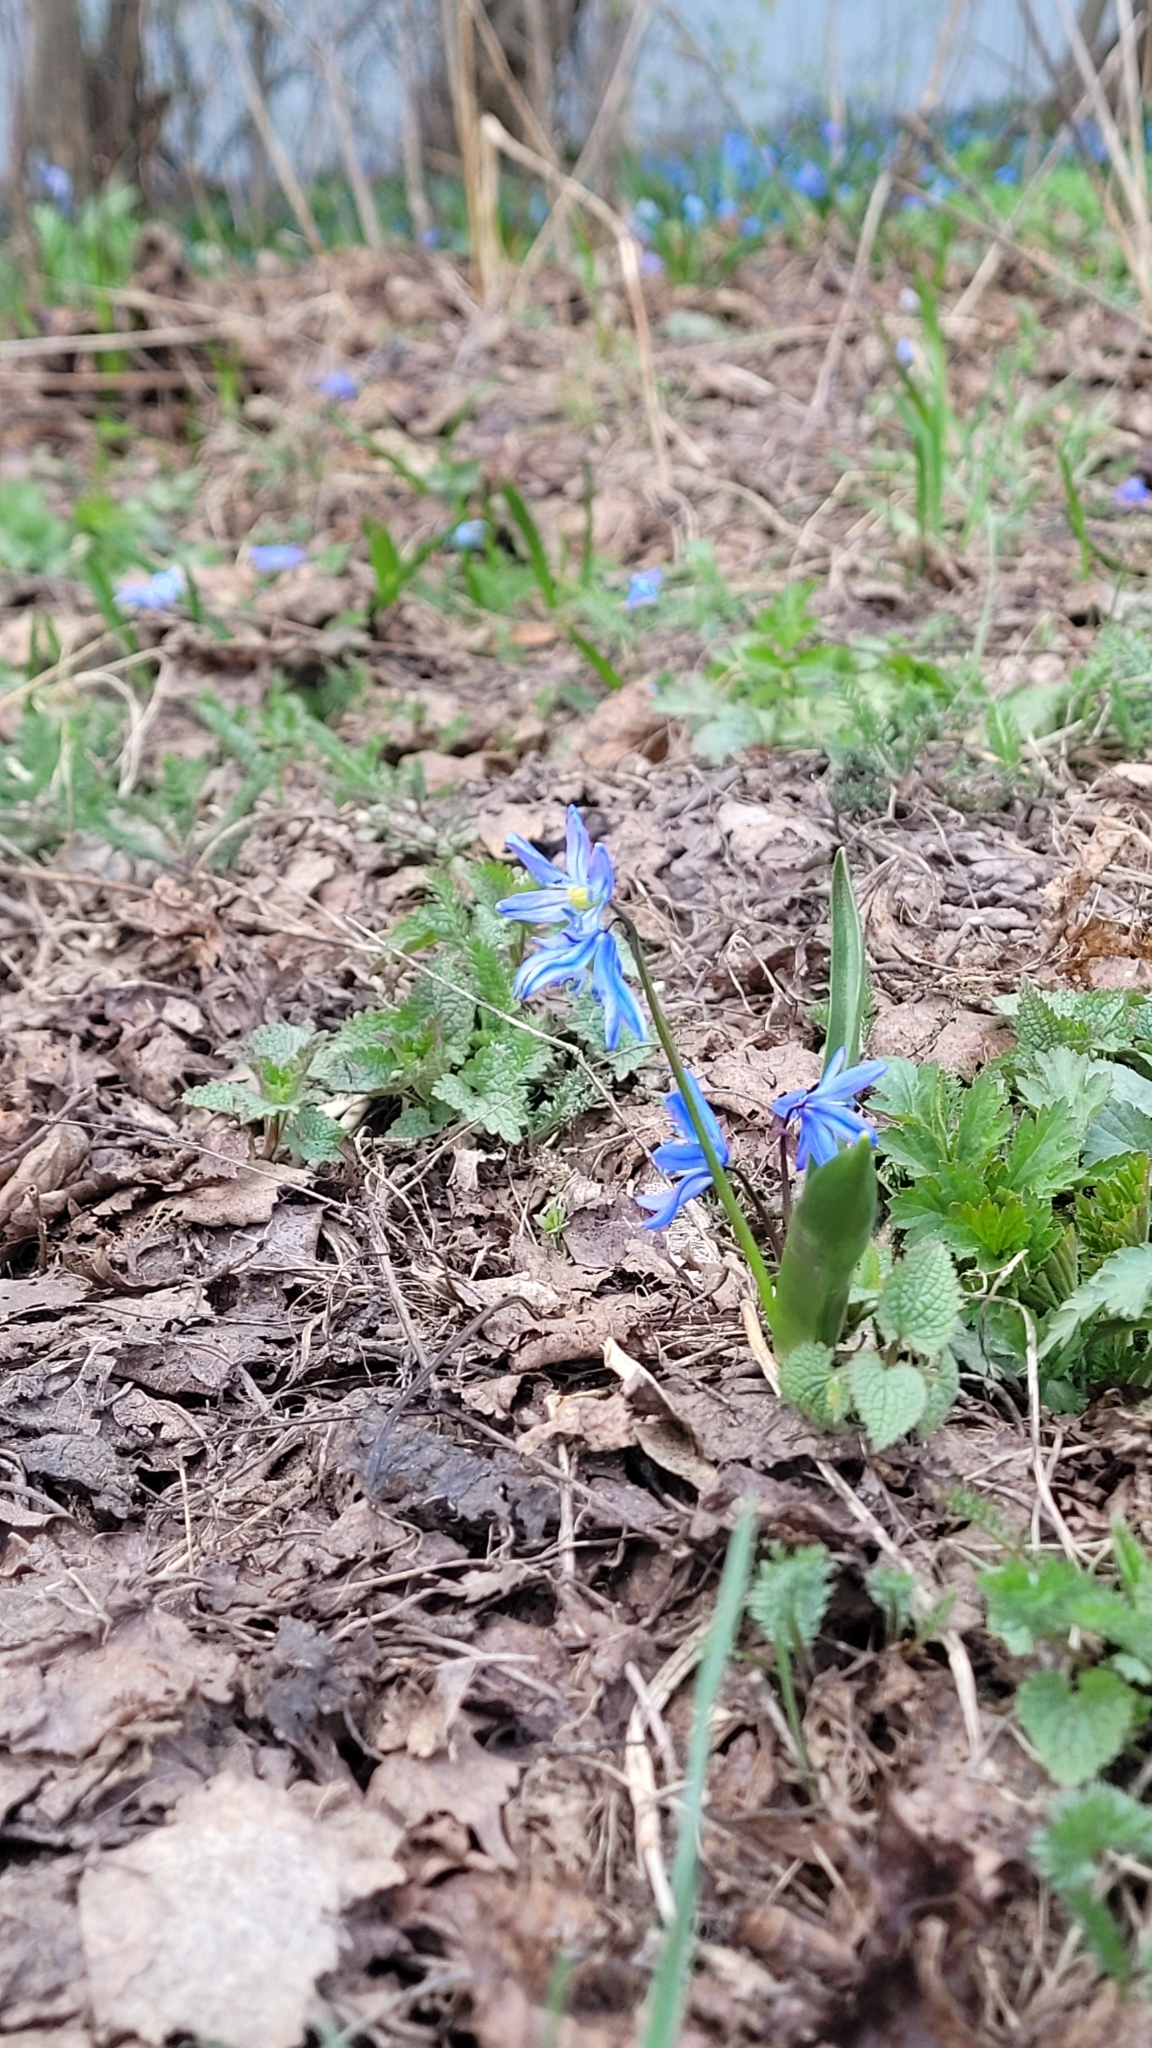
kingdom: Plantae
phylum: Tracheophyta
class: Liliopsida
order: Asparagales
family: Asparagaceae
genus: Scilla
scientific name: Scilla siberica
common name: Siberian squill
